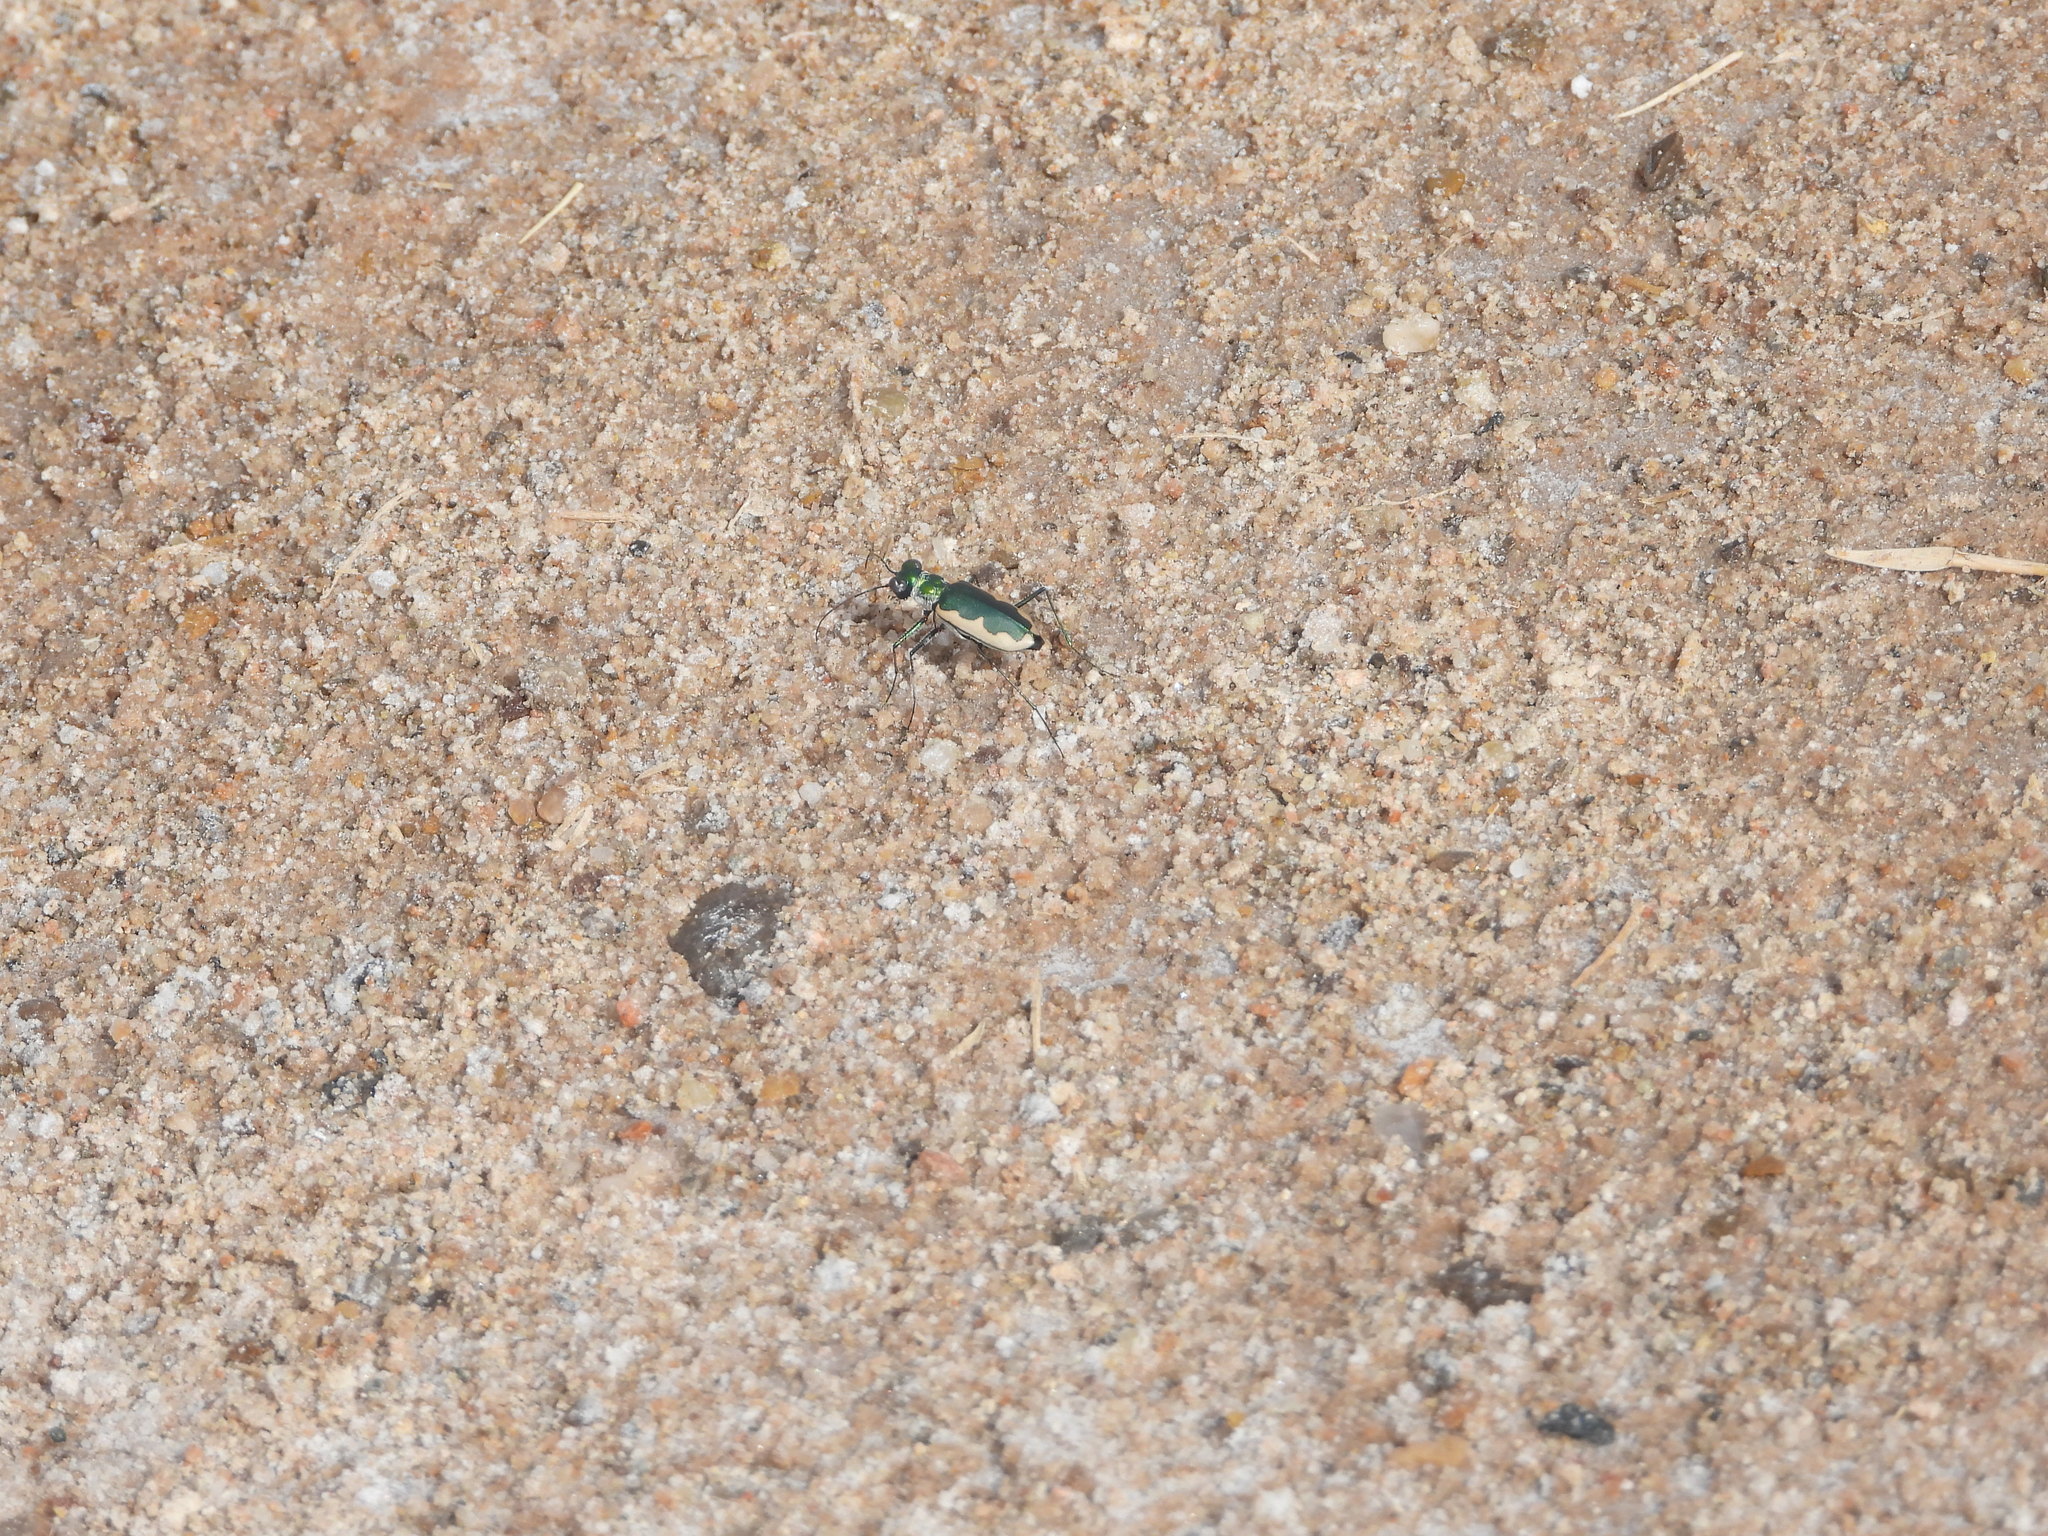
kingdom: Animalia
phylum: Arthropoda
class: Insecta
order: Coleoptera
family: Carabidae
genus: Eunota
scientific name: Eunota circumpicta
